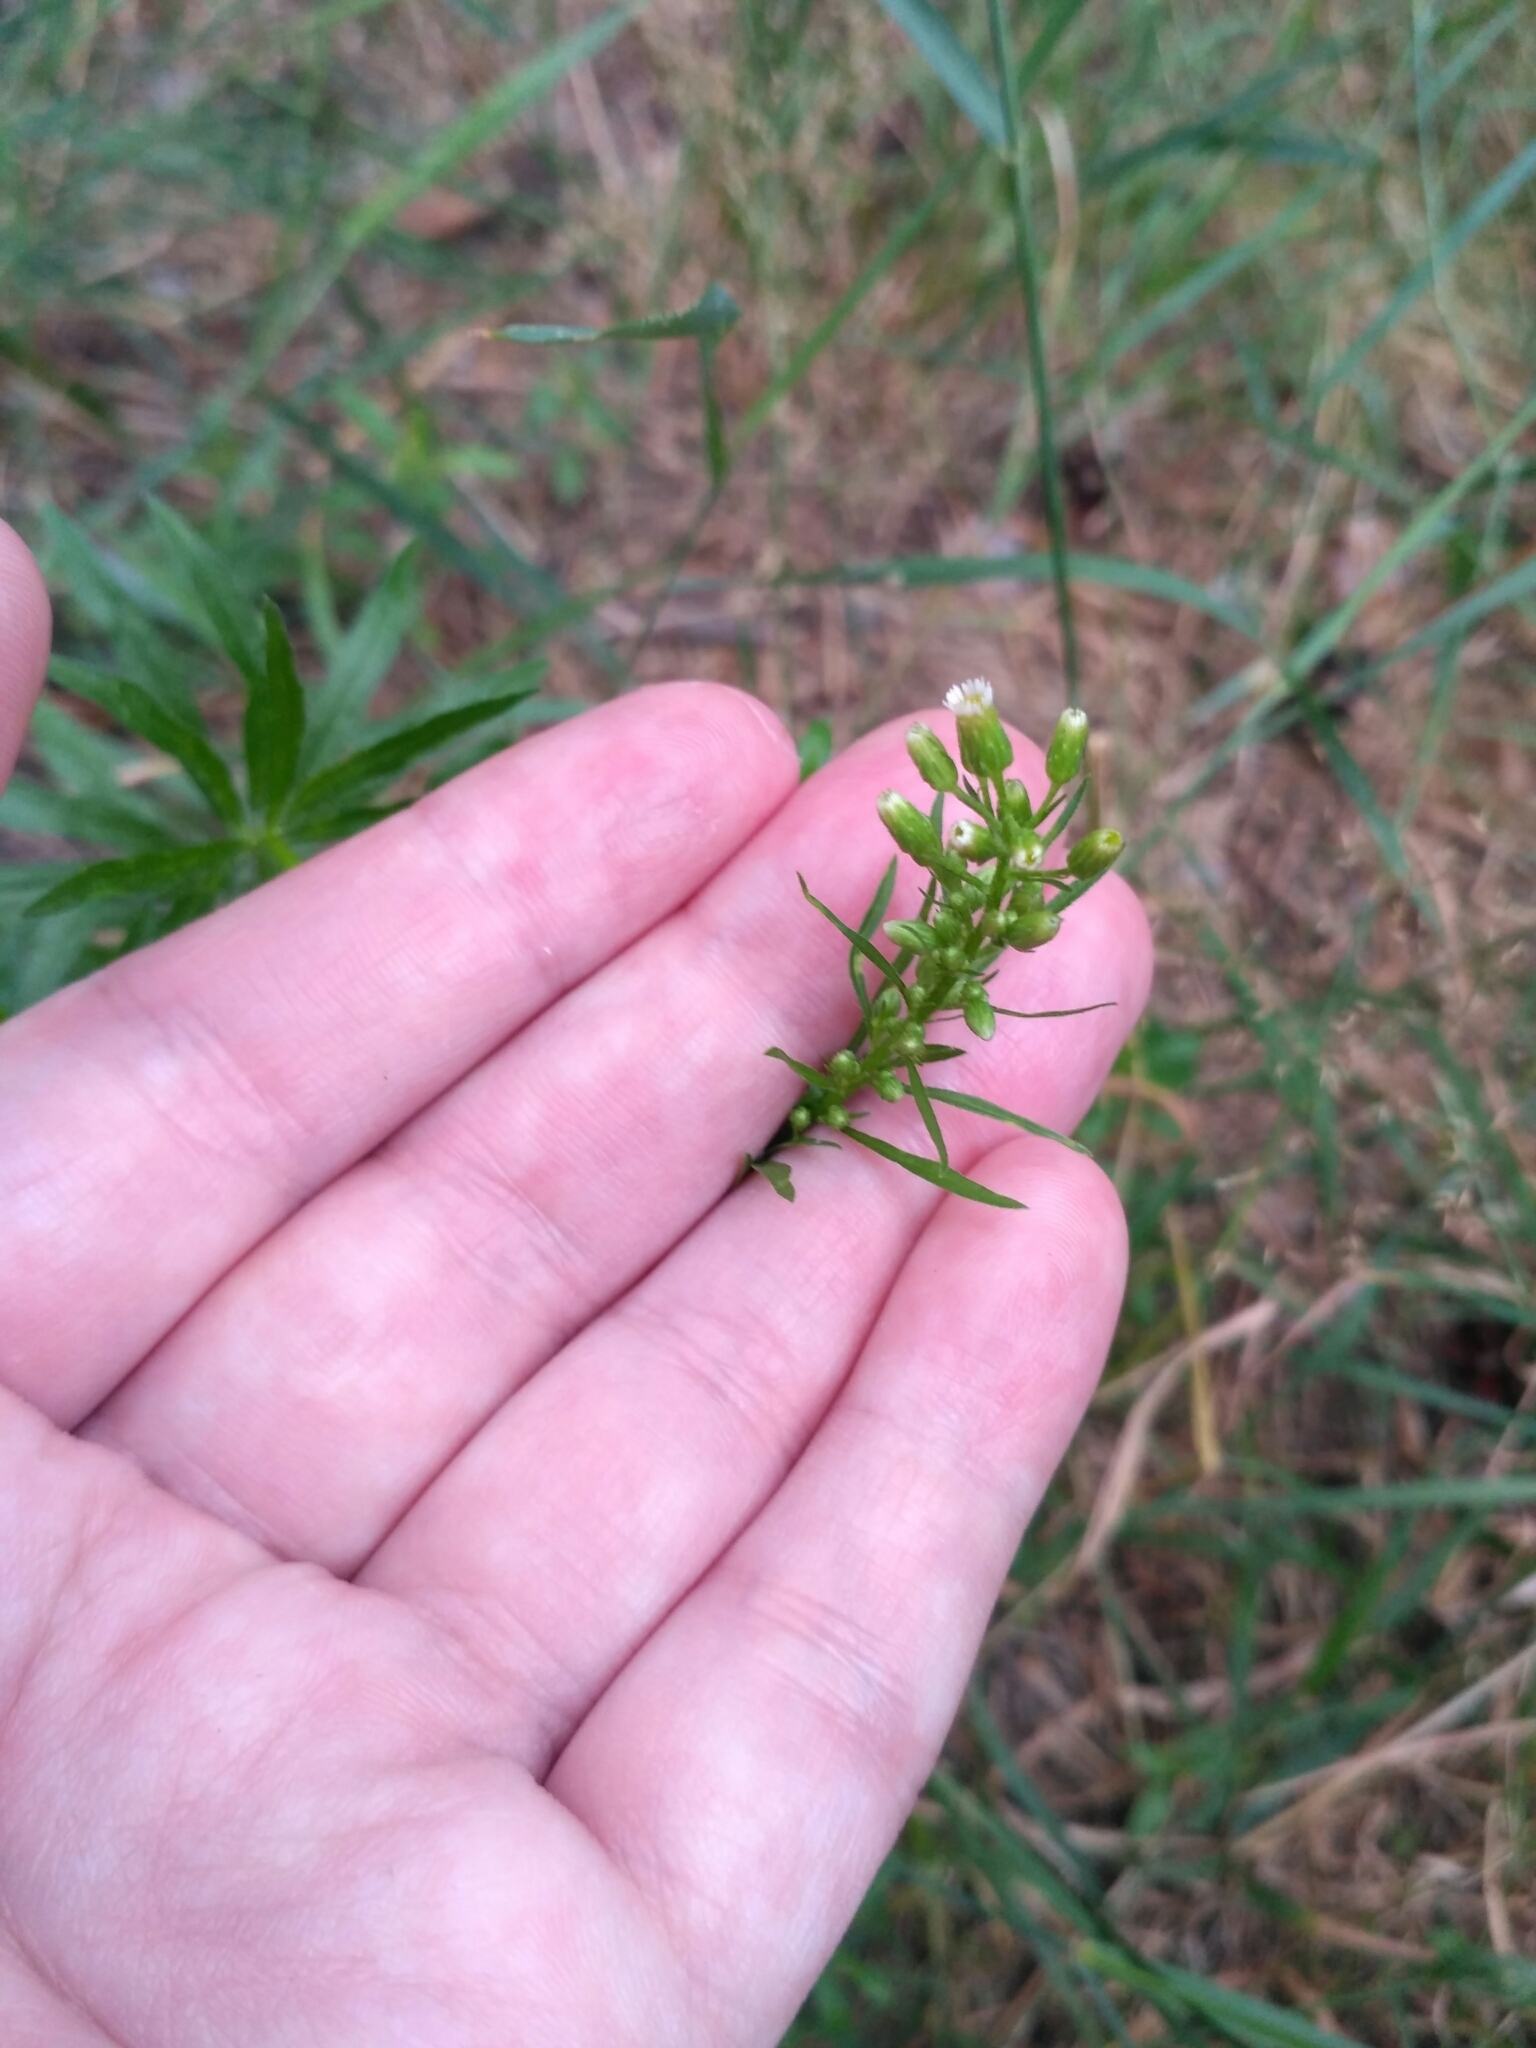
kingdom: Plantae
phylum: Tracheophyta
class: Magnoliopsida
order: Asterales
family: Asteraceae
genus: Erigeron
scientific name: Erigeron canadensis
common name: Canadian fleabane
